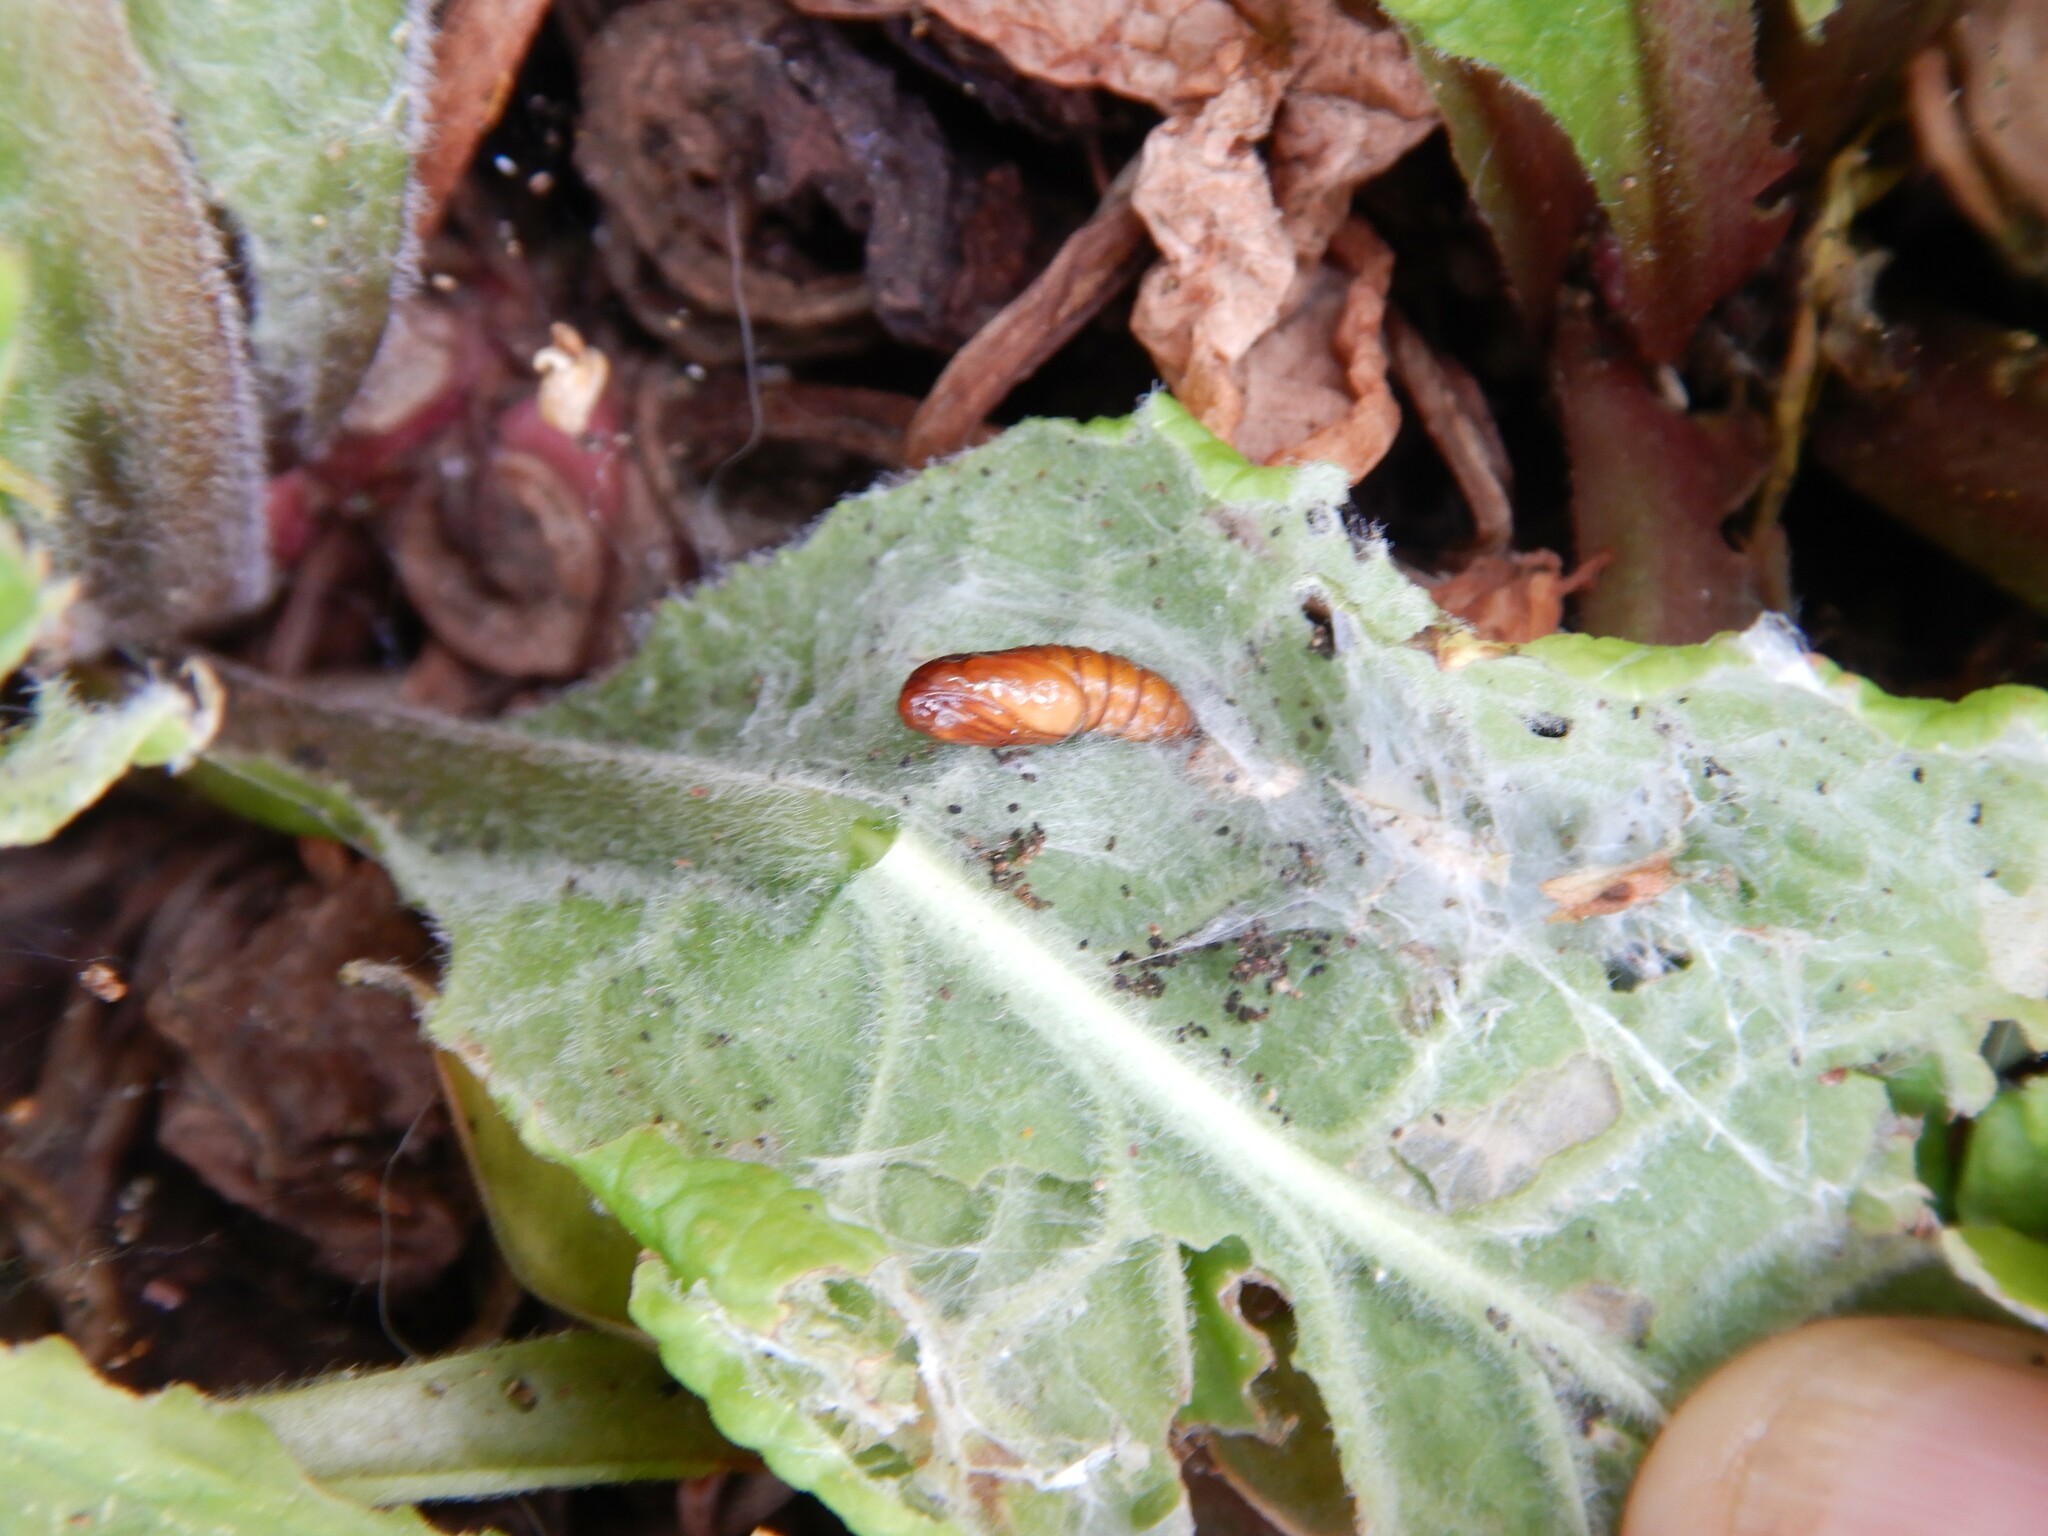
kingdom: Animalia
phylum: Arthropoda
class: Insecta
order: Lepidoptera
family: Tortricidae
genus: Epiphyas
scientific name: Epiphyas postvittana
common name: Light brown apple moth
